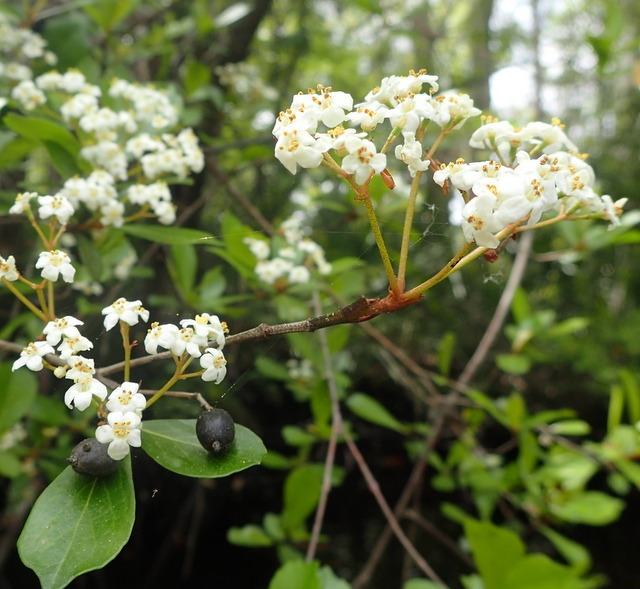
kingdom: Plantae
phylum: Tracheophyta
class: Magnoliopsida
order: Dipsacales
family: Viburnaceae
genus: Viburnum
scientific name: Viburnum obovatum
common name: Walter's viburnum
